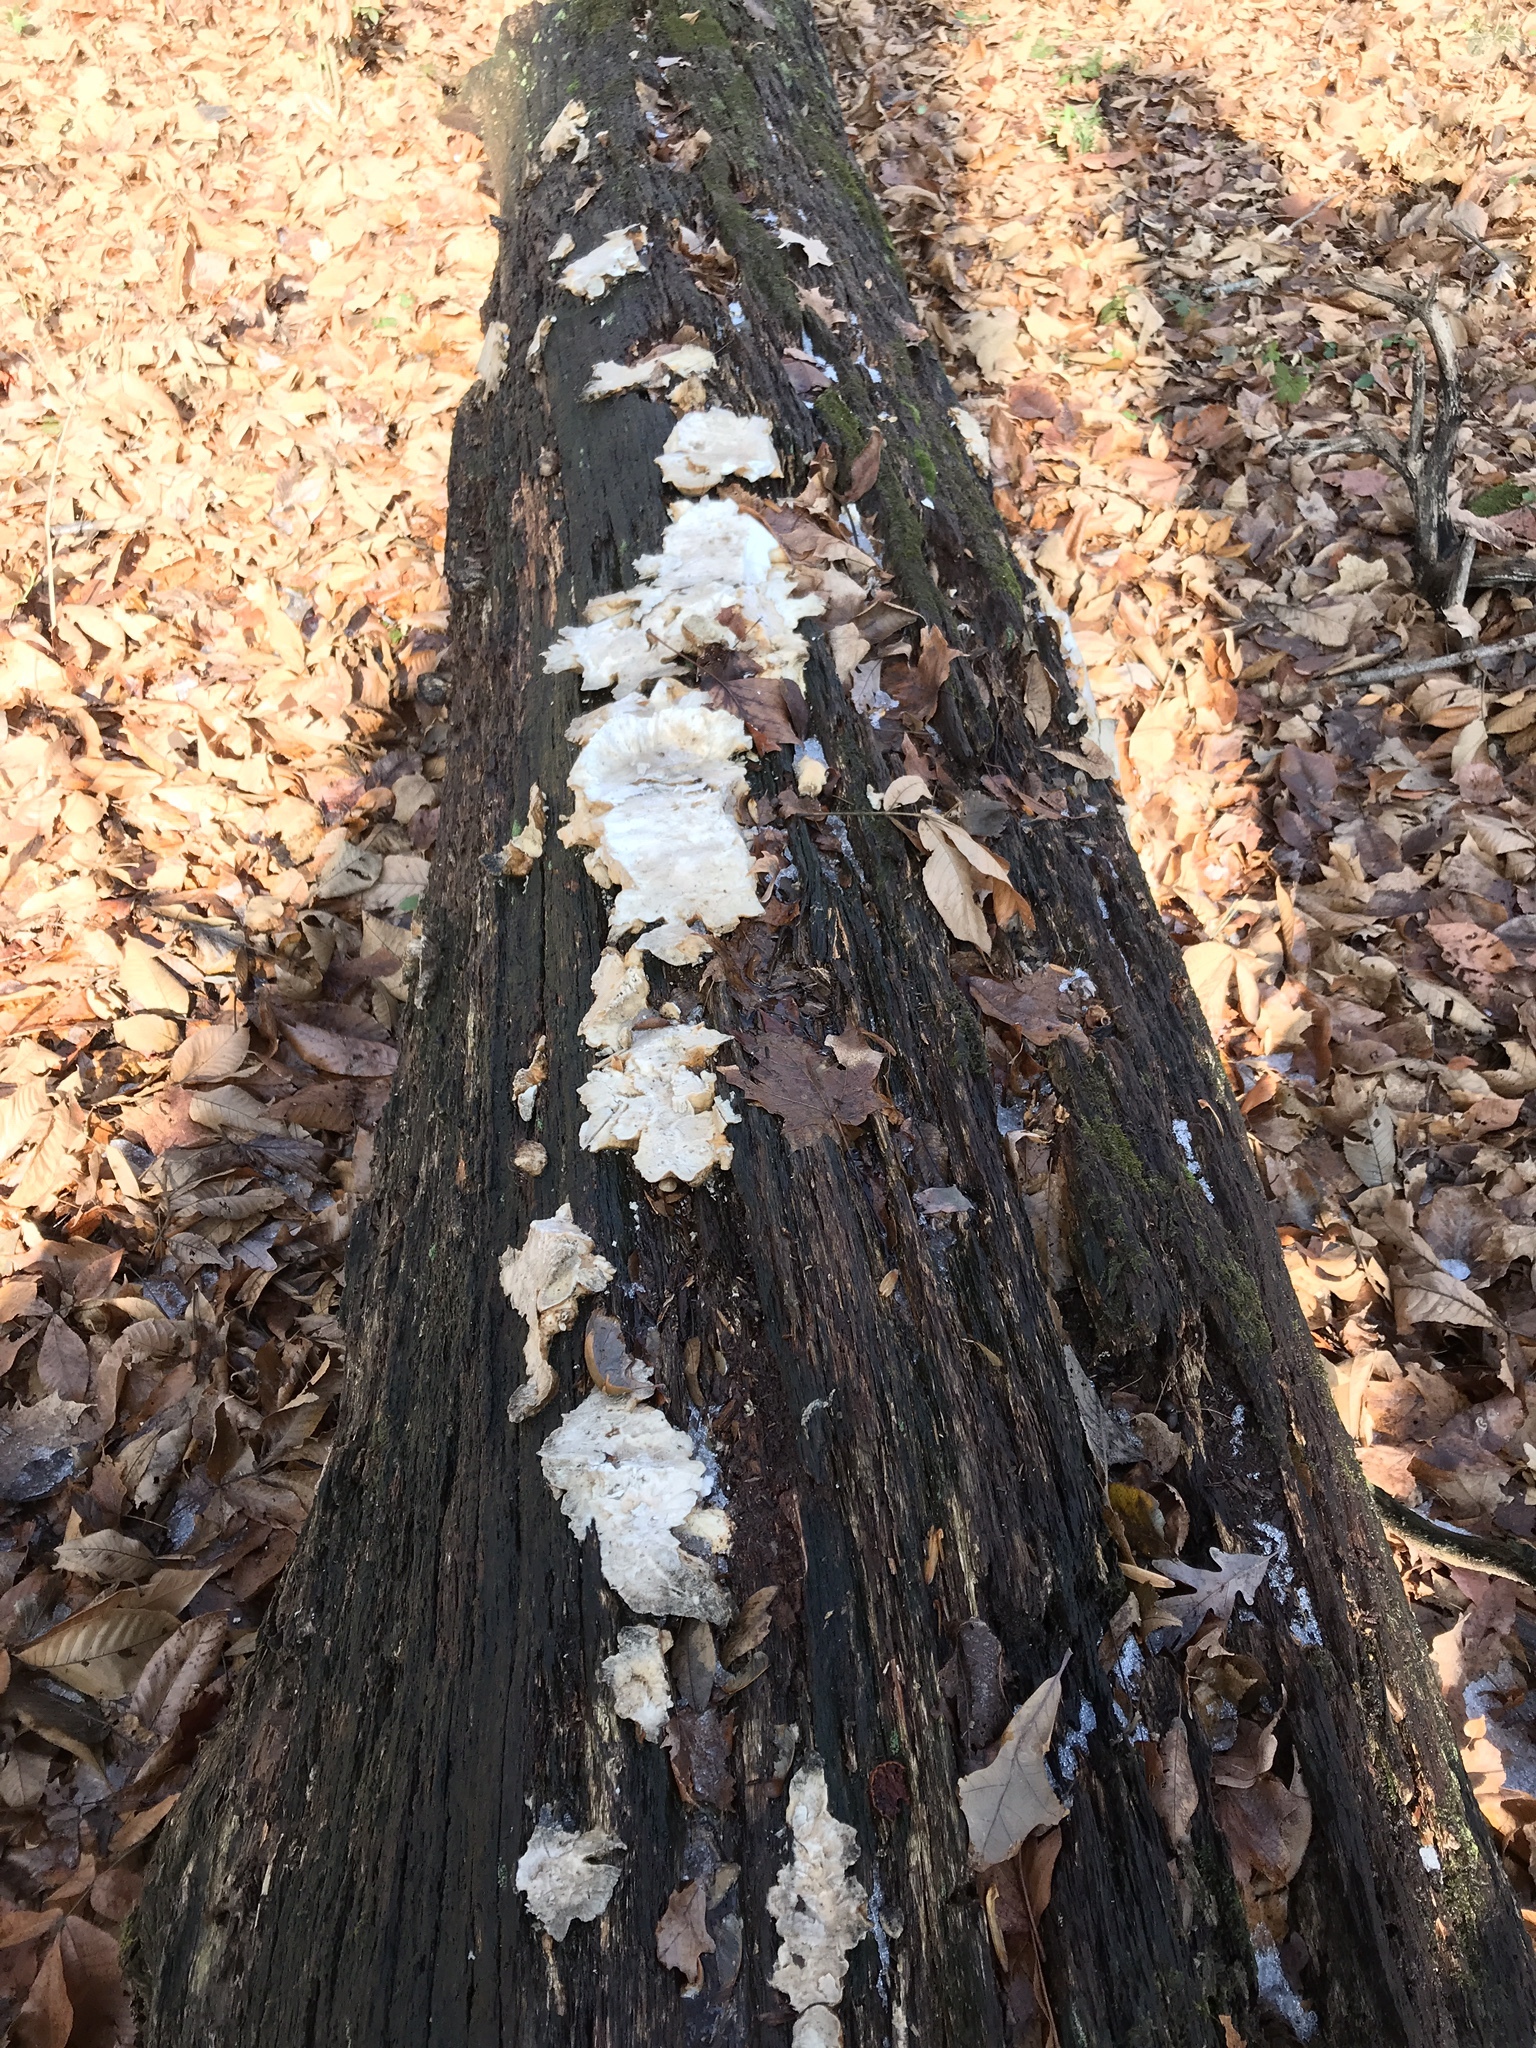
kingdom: Fungi
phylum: Basidiomycota
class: Agaricomycetes
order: Polyporales
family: Laetiporaceae
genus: Laetiporus
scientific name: Laetiporus sulphureus
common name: Chicken of the woods
